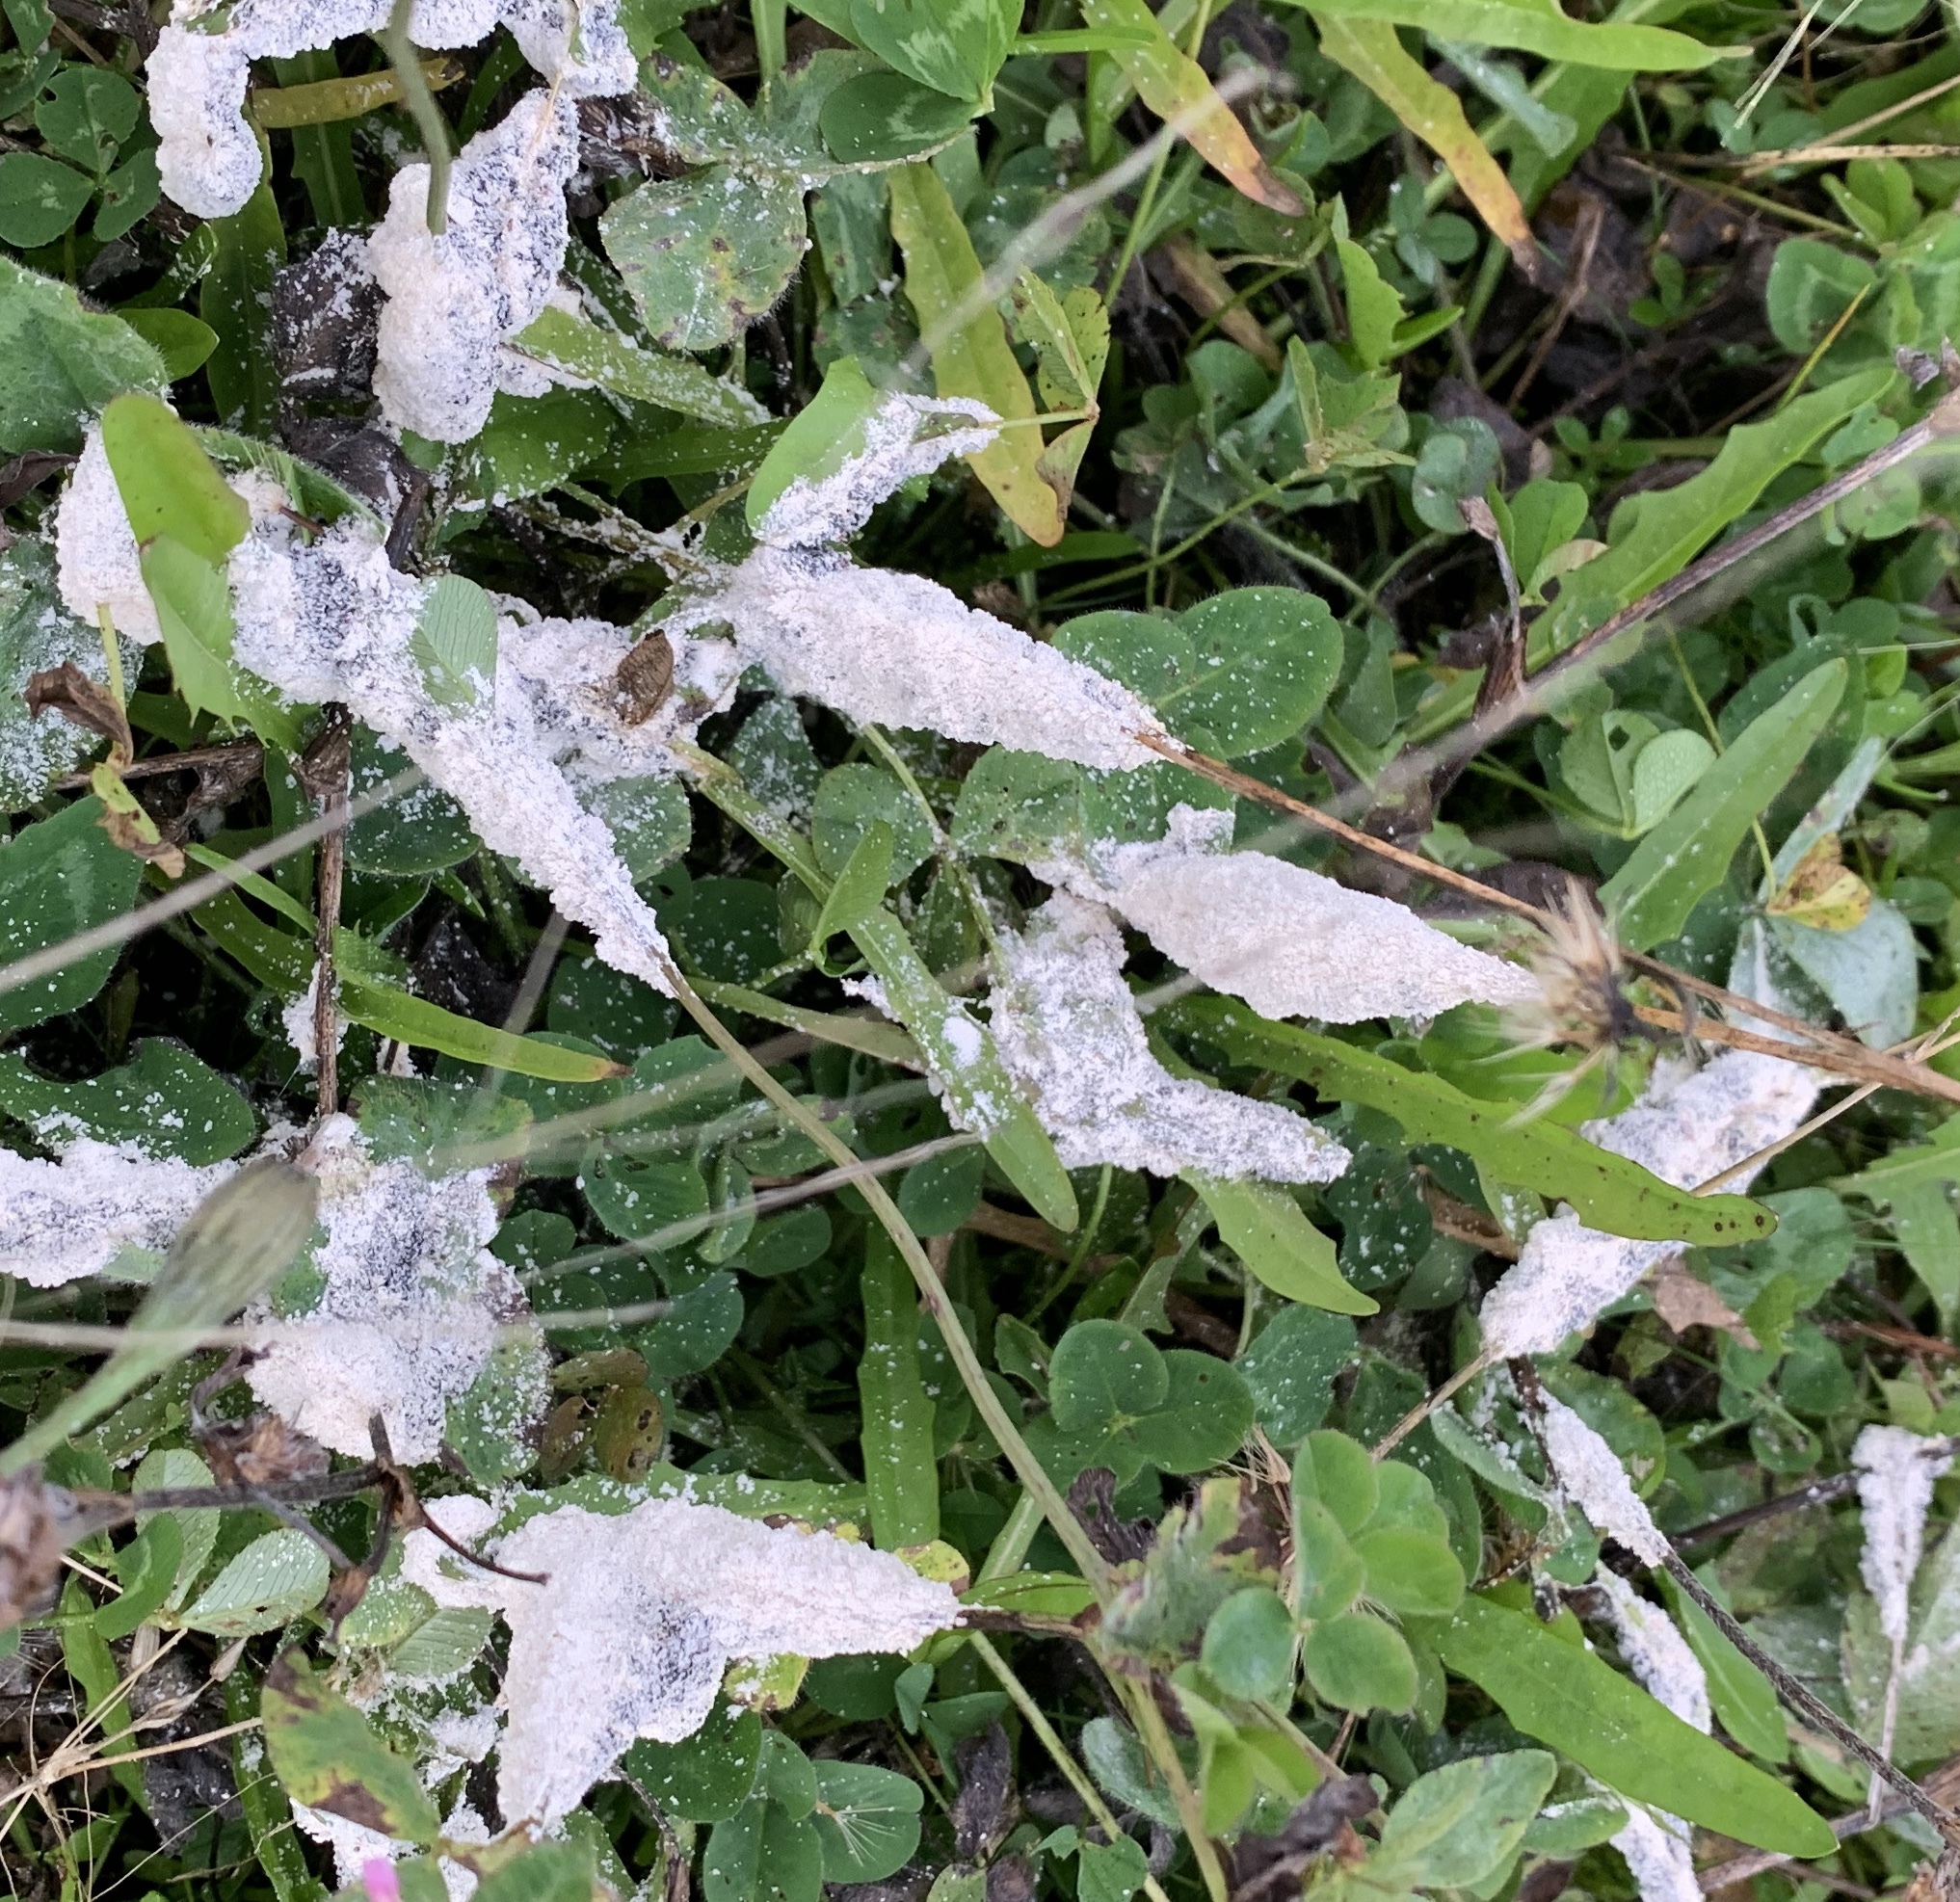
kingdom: Protozoa
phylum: Mycetozoa
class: Myxomycetes
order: Physarales
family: Physaraceae
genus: Didymium
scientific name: Didymium
